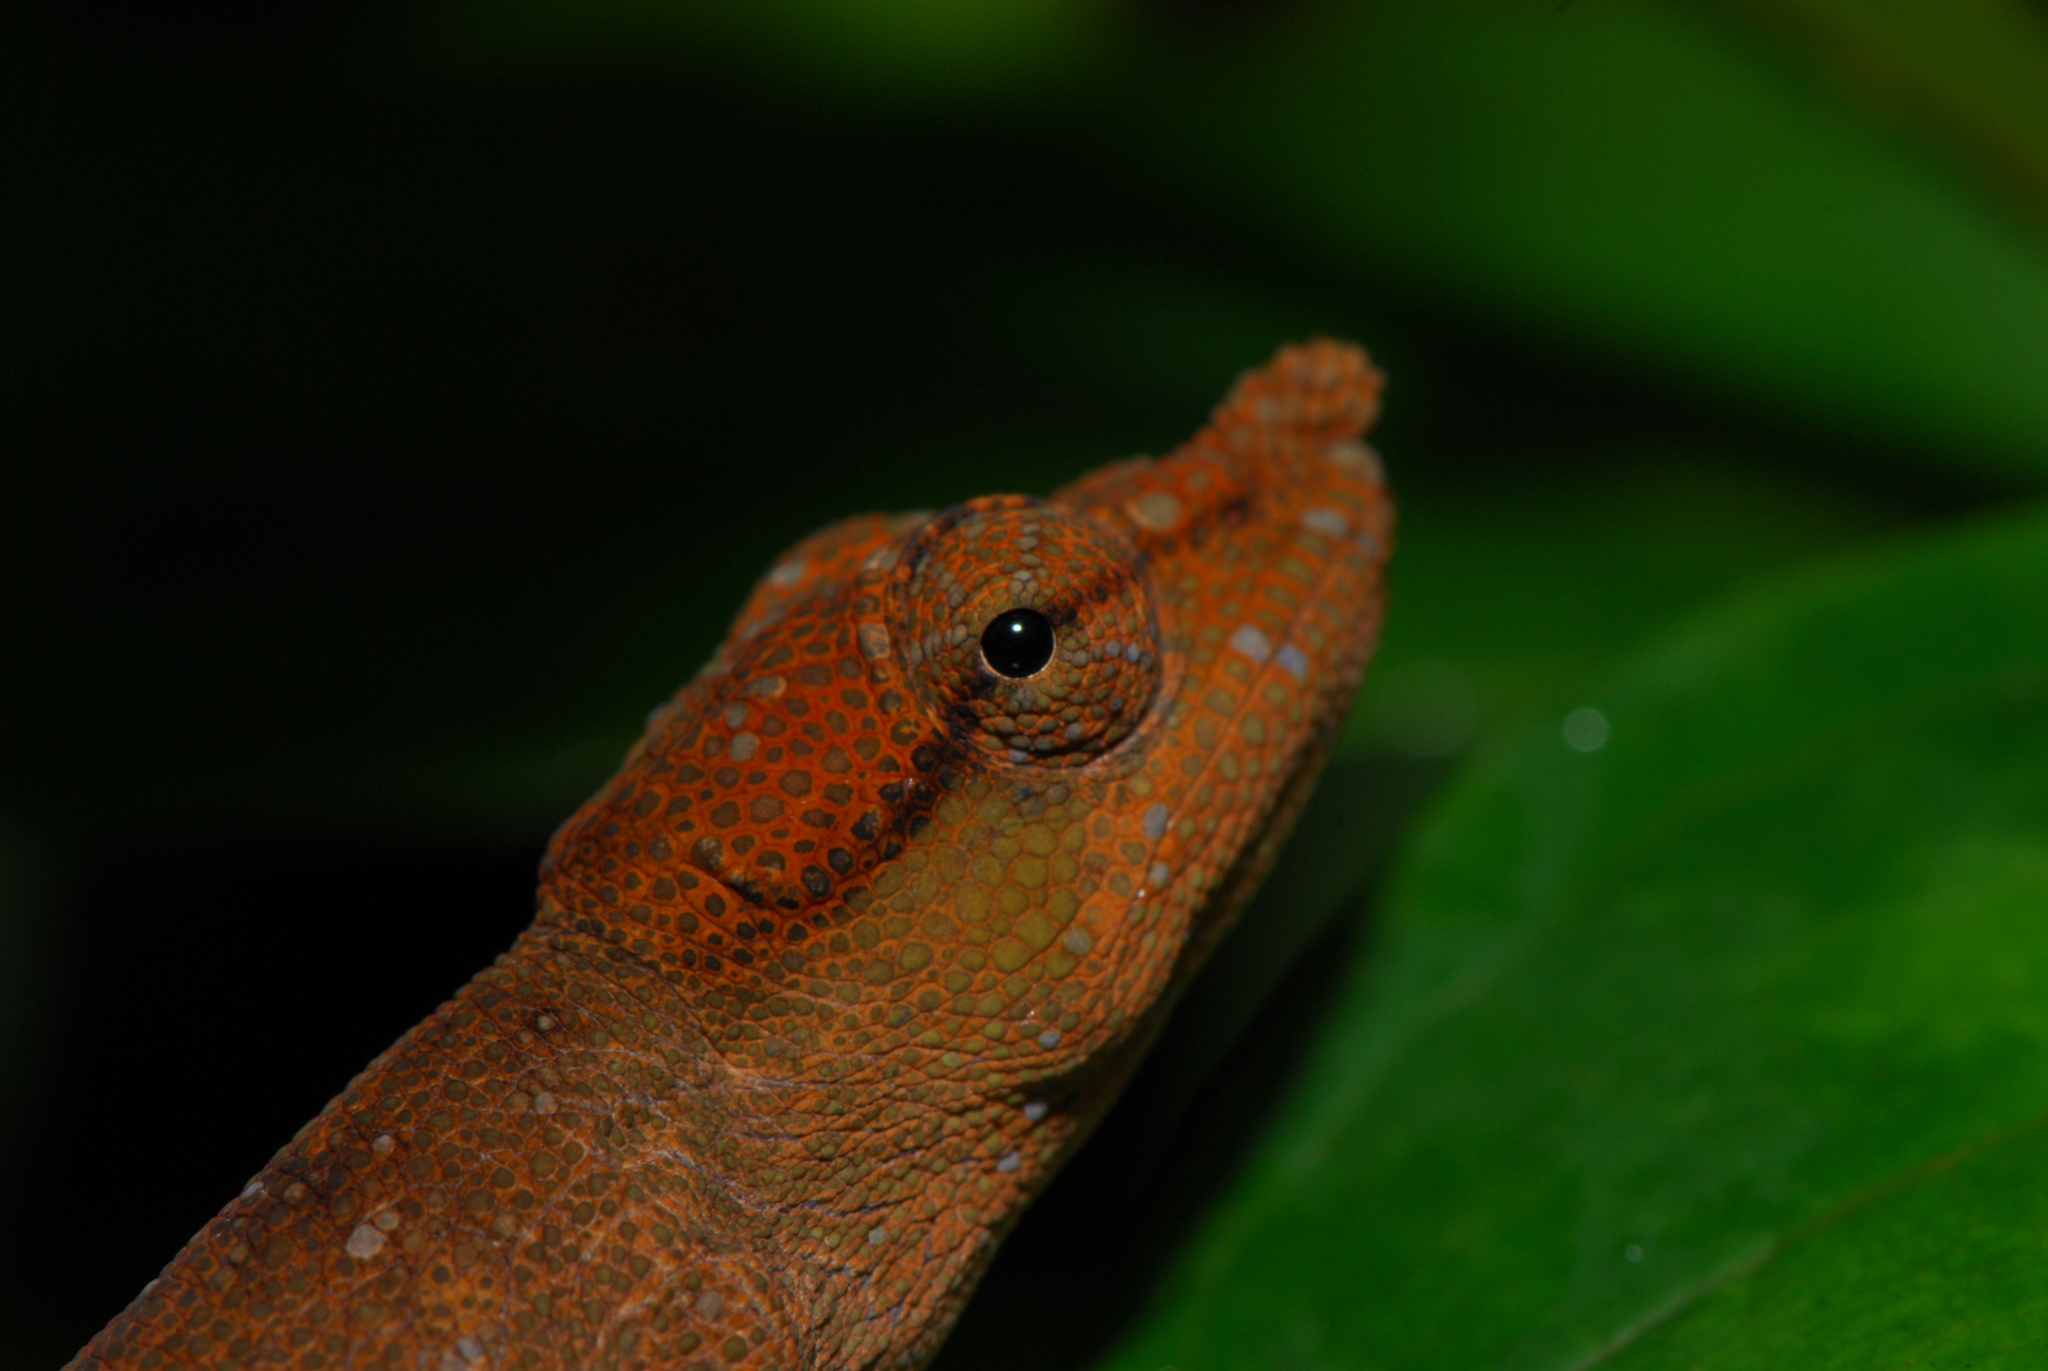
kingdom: Animalia
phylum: Chordata
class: Squamata
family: Chamaeleonidae
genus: Calumma
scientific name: Calumma tjiasmantoi
